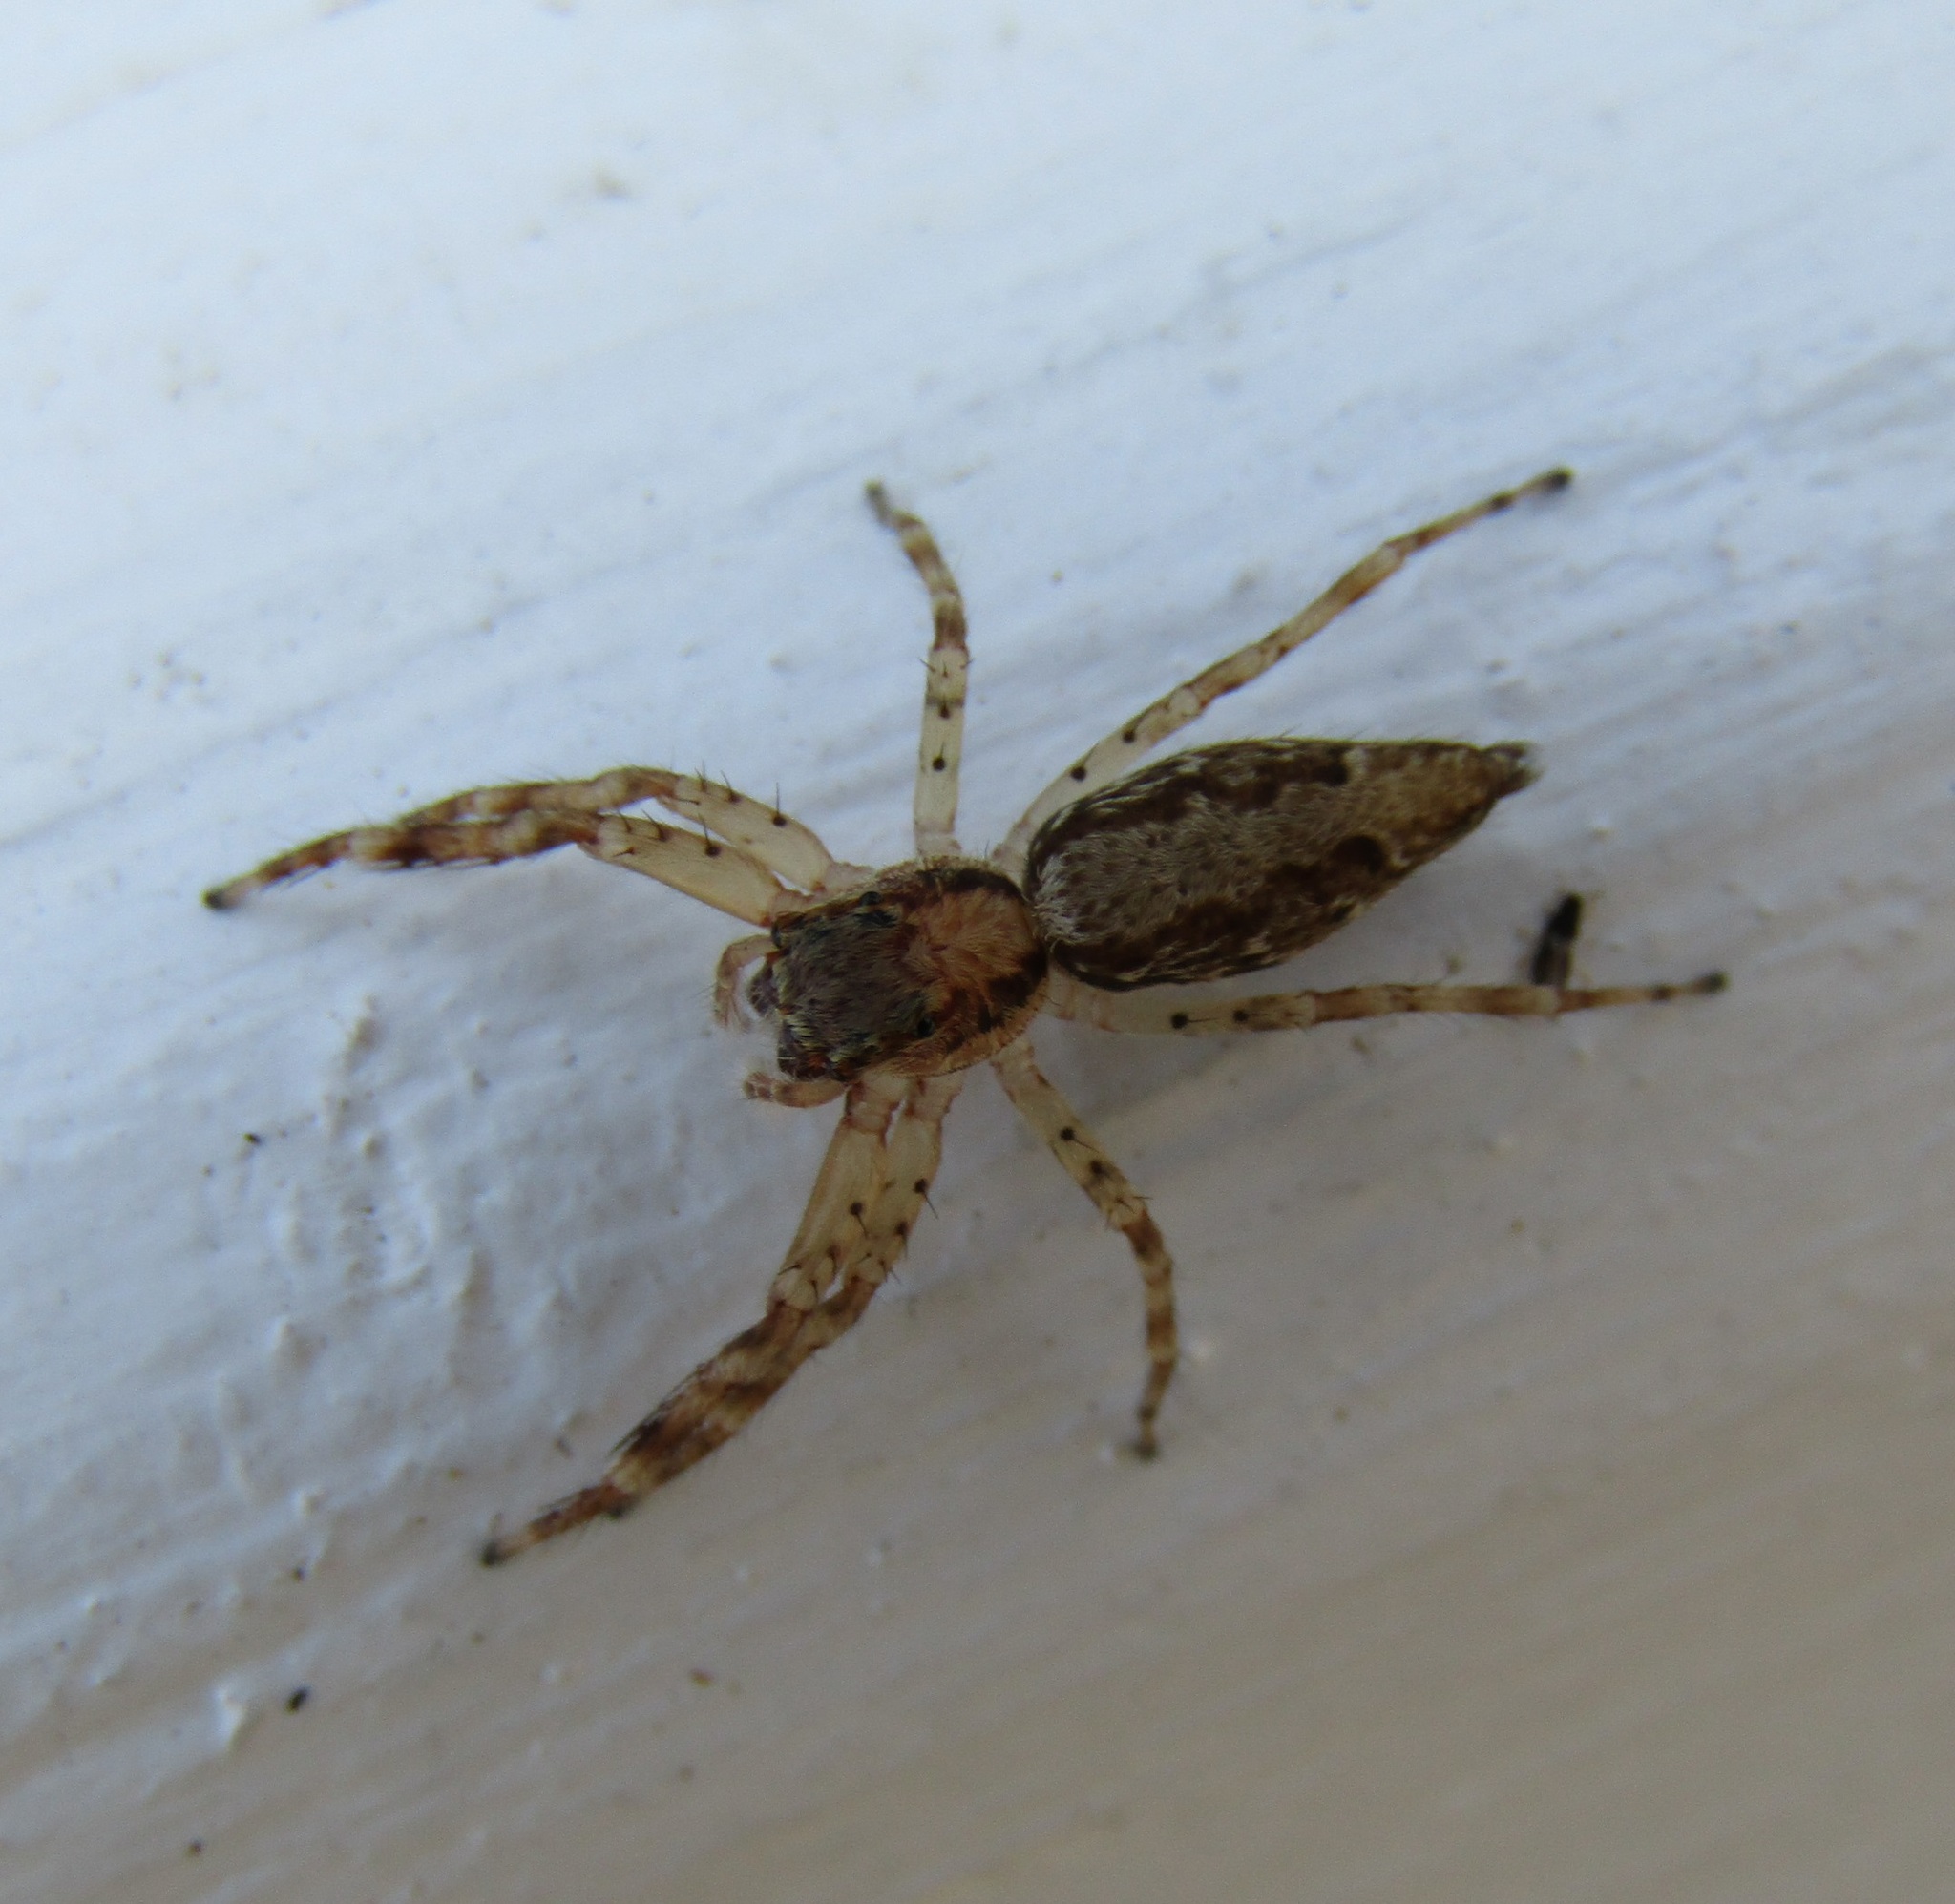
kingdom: Animalia
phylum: Arthropoda
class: Arachnida
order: Araneae
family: Salticidae
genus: Helpis
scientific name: Helpis minitabunda
